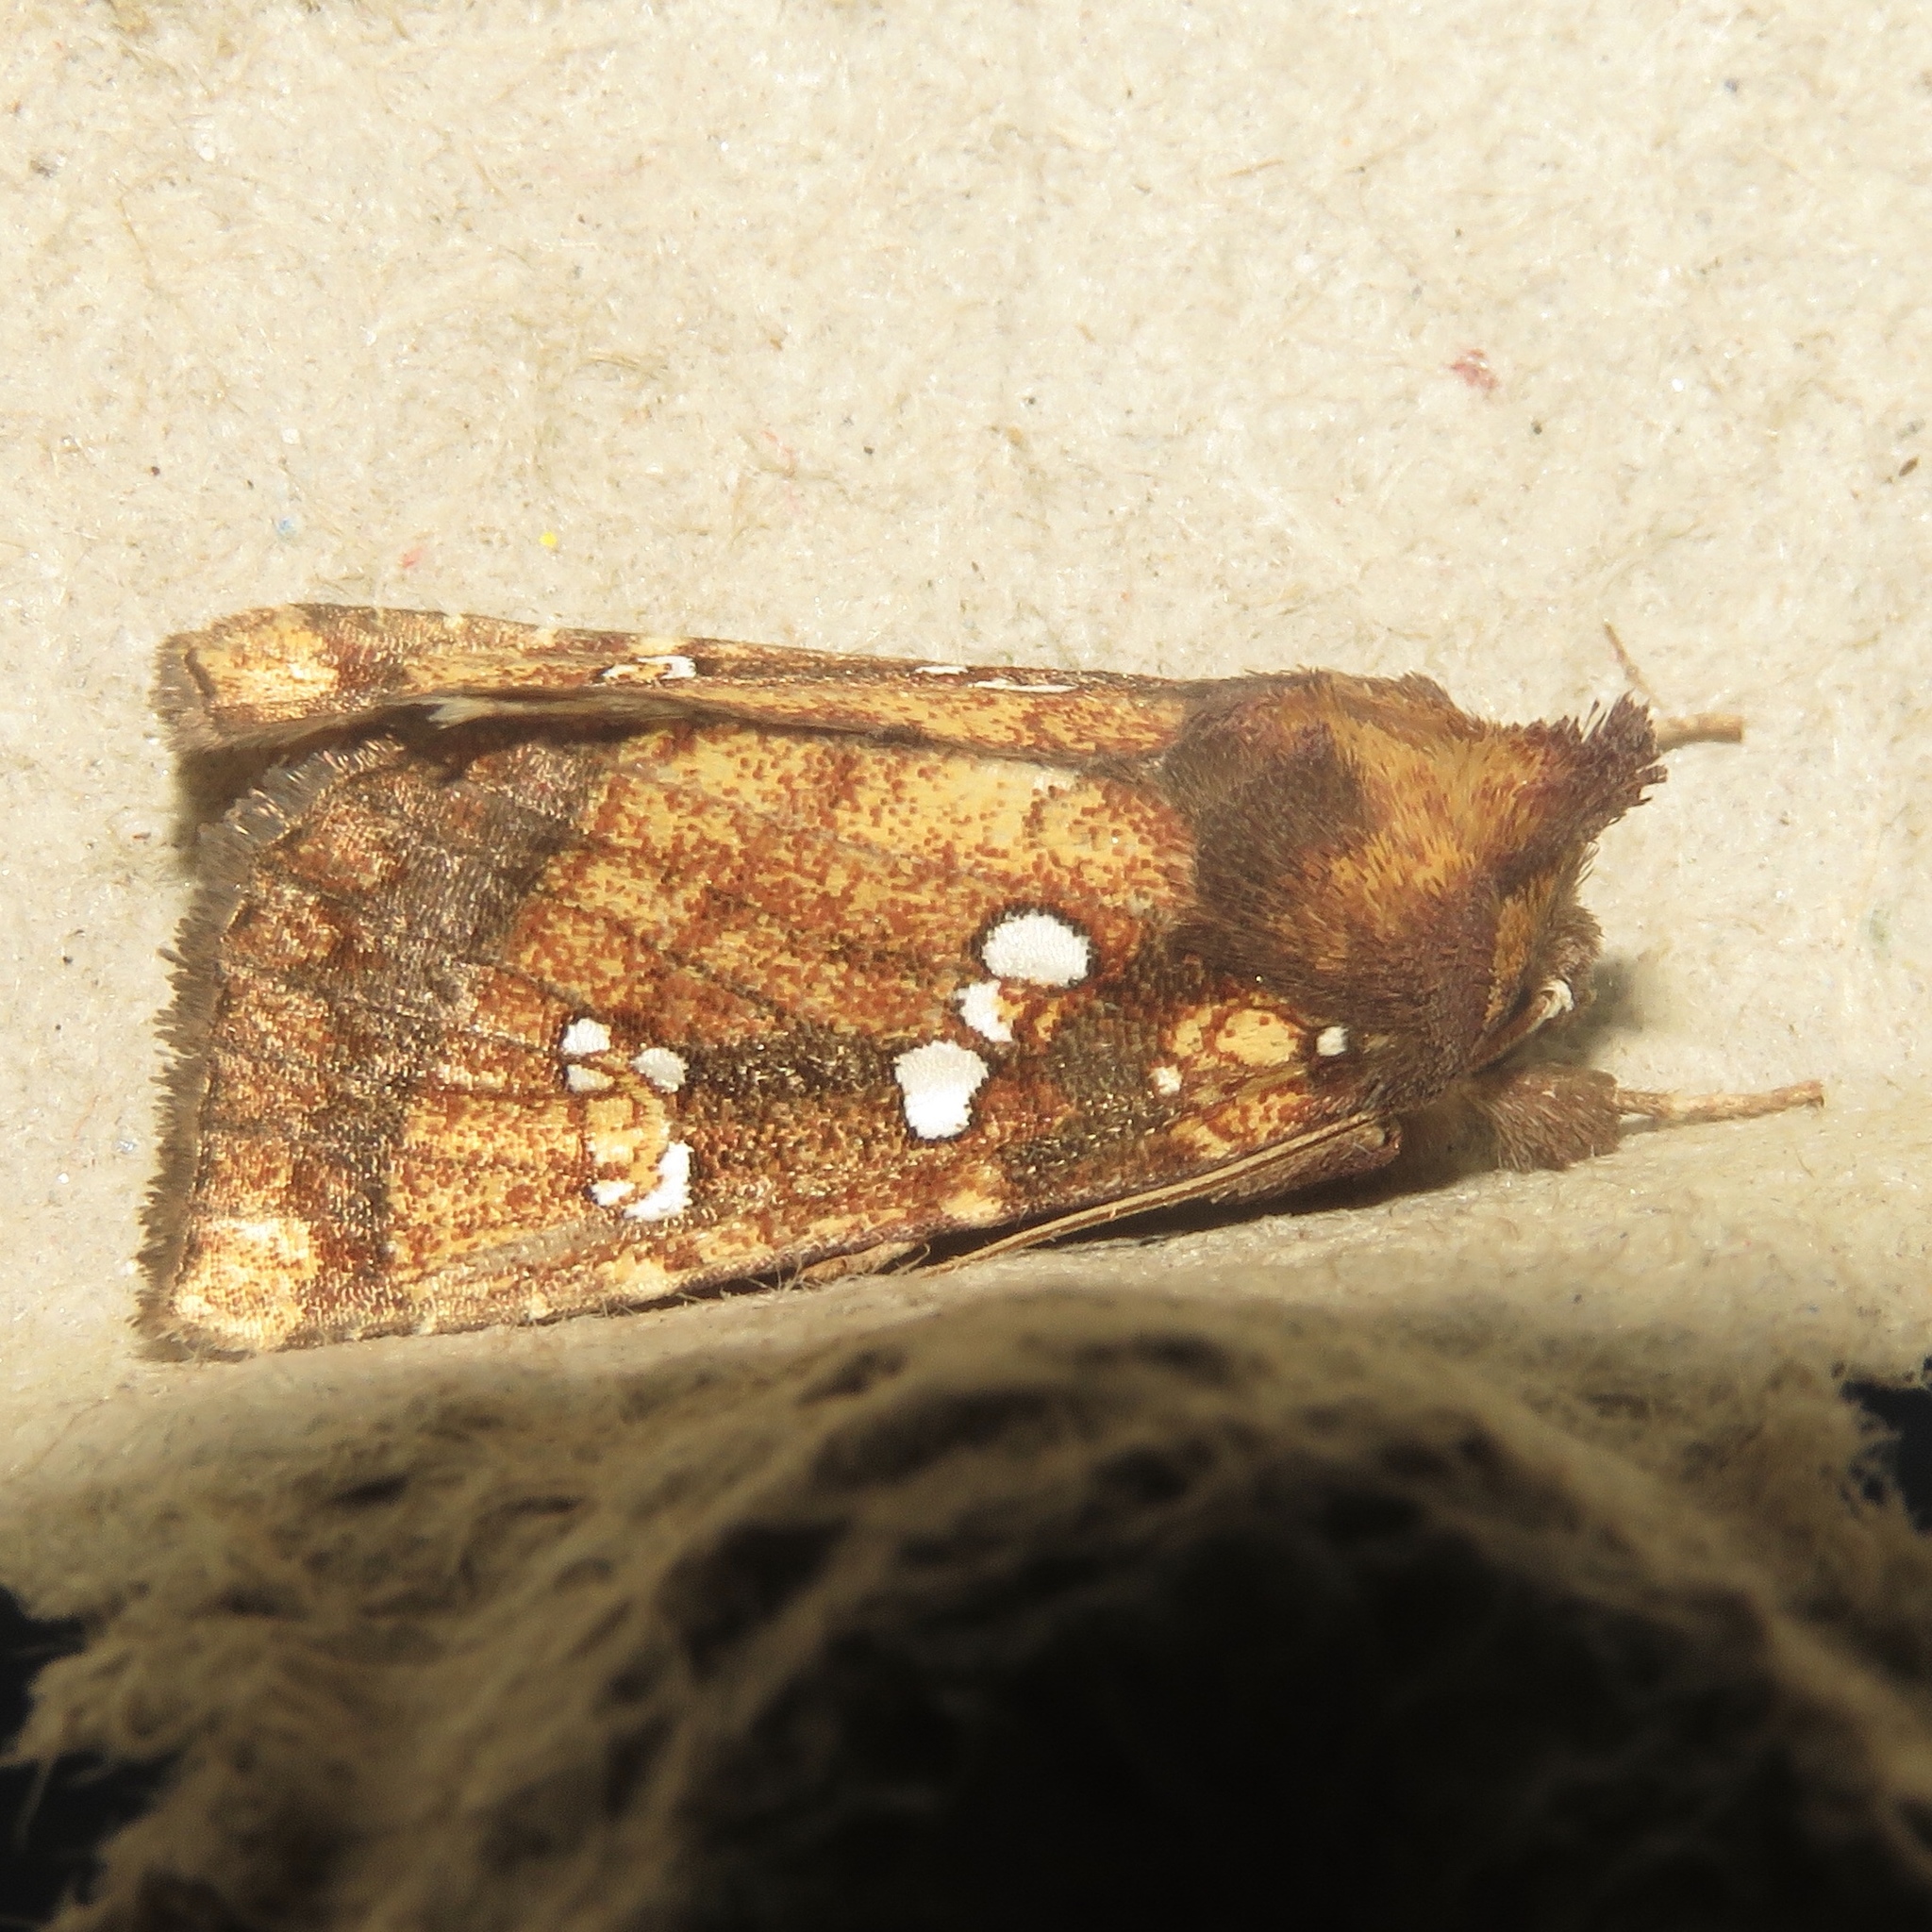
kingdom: Animalia
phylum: Arthropoda
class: Insecta
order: Lepidoptera
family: Noctuidae
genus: Papaipema
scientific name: Papaipema arctivorens
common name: Northern burdock borer moth
